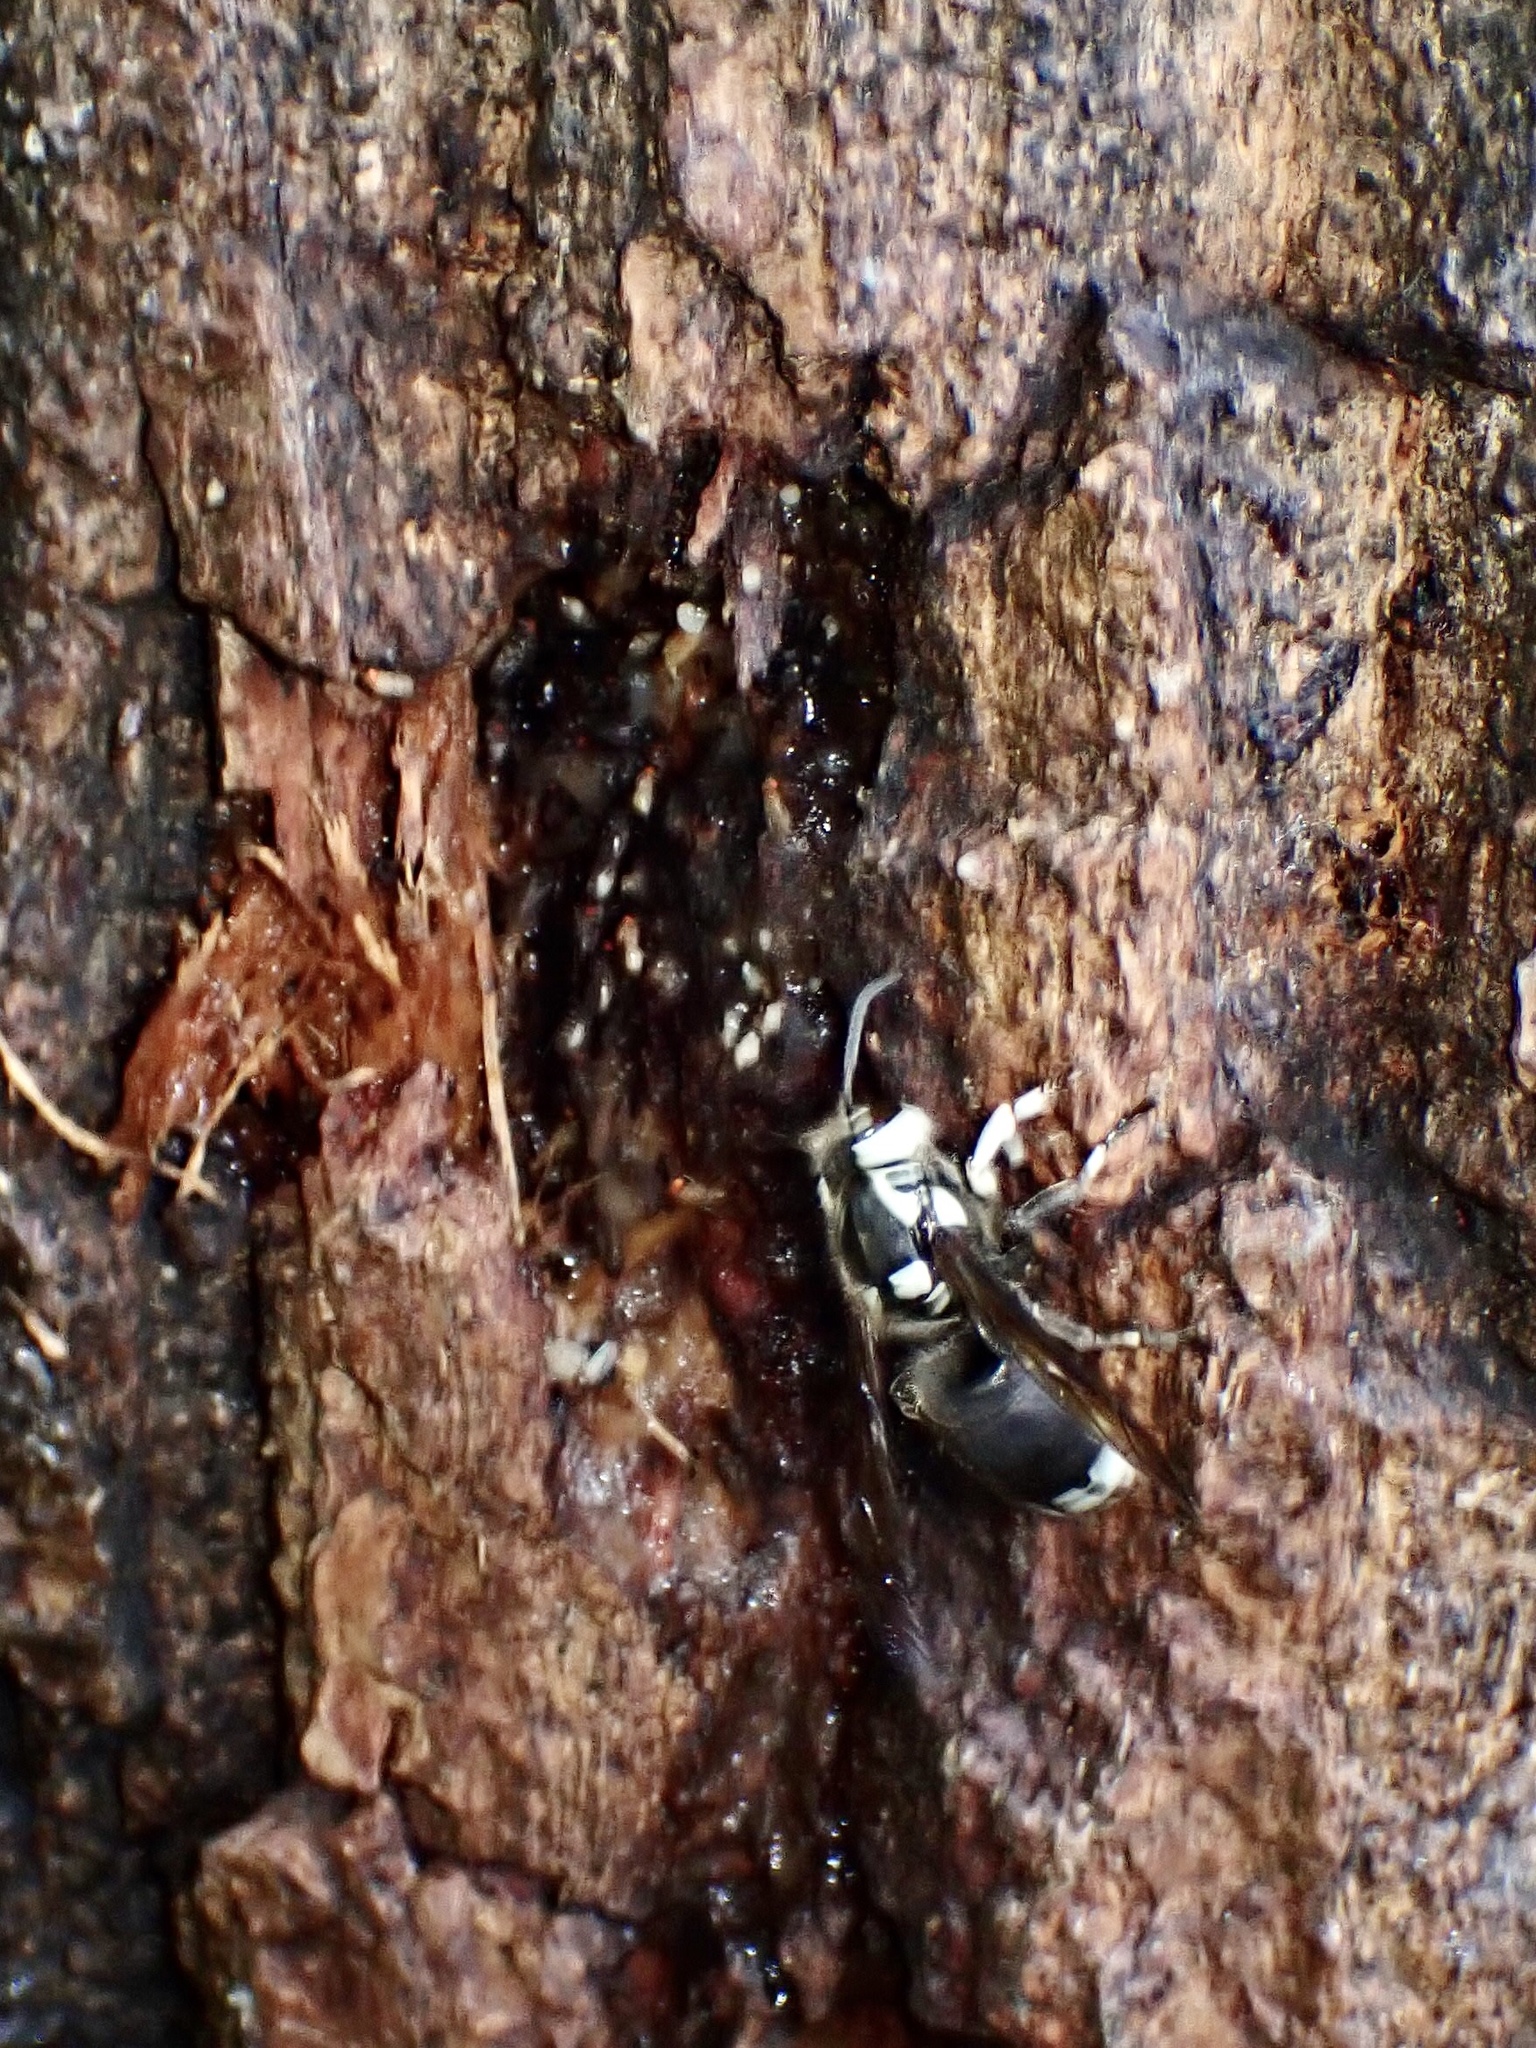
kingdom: Animalia
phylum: Arthropoda
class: Insecta
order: Hymenoptera
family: Vespidae
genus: Dolichovespula
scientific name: Dolichovespula maculata
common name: Bald-faced hornet
